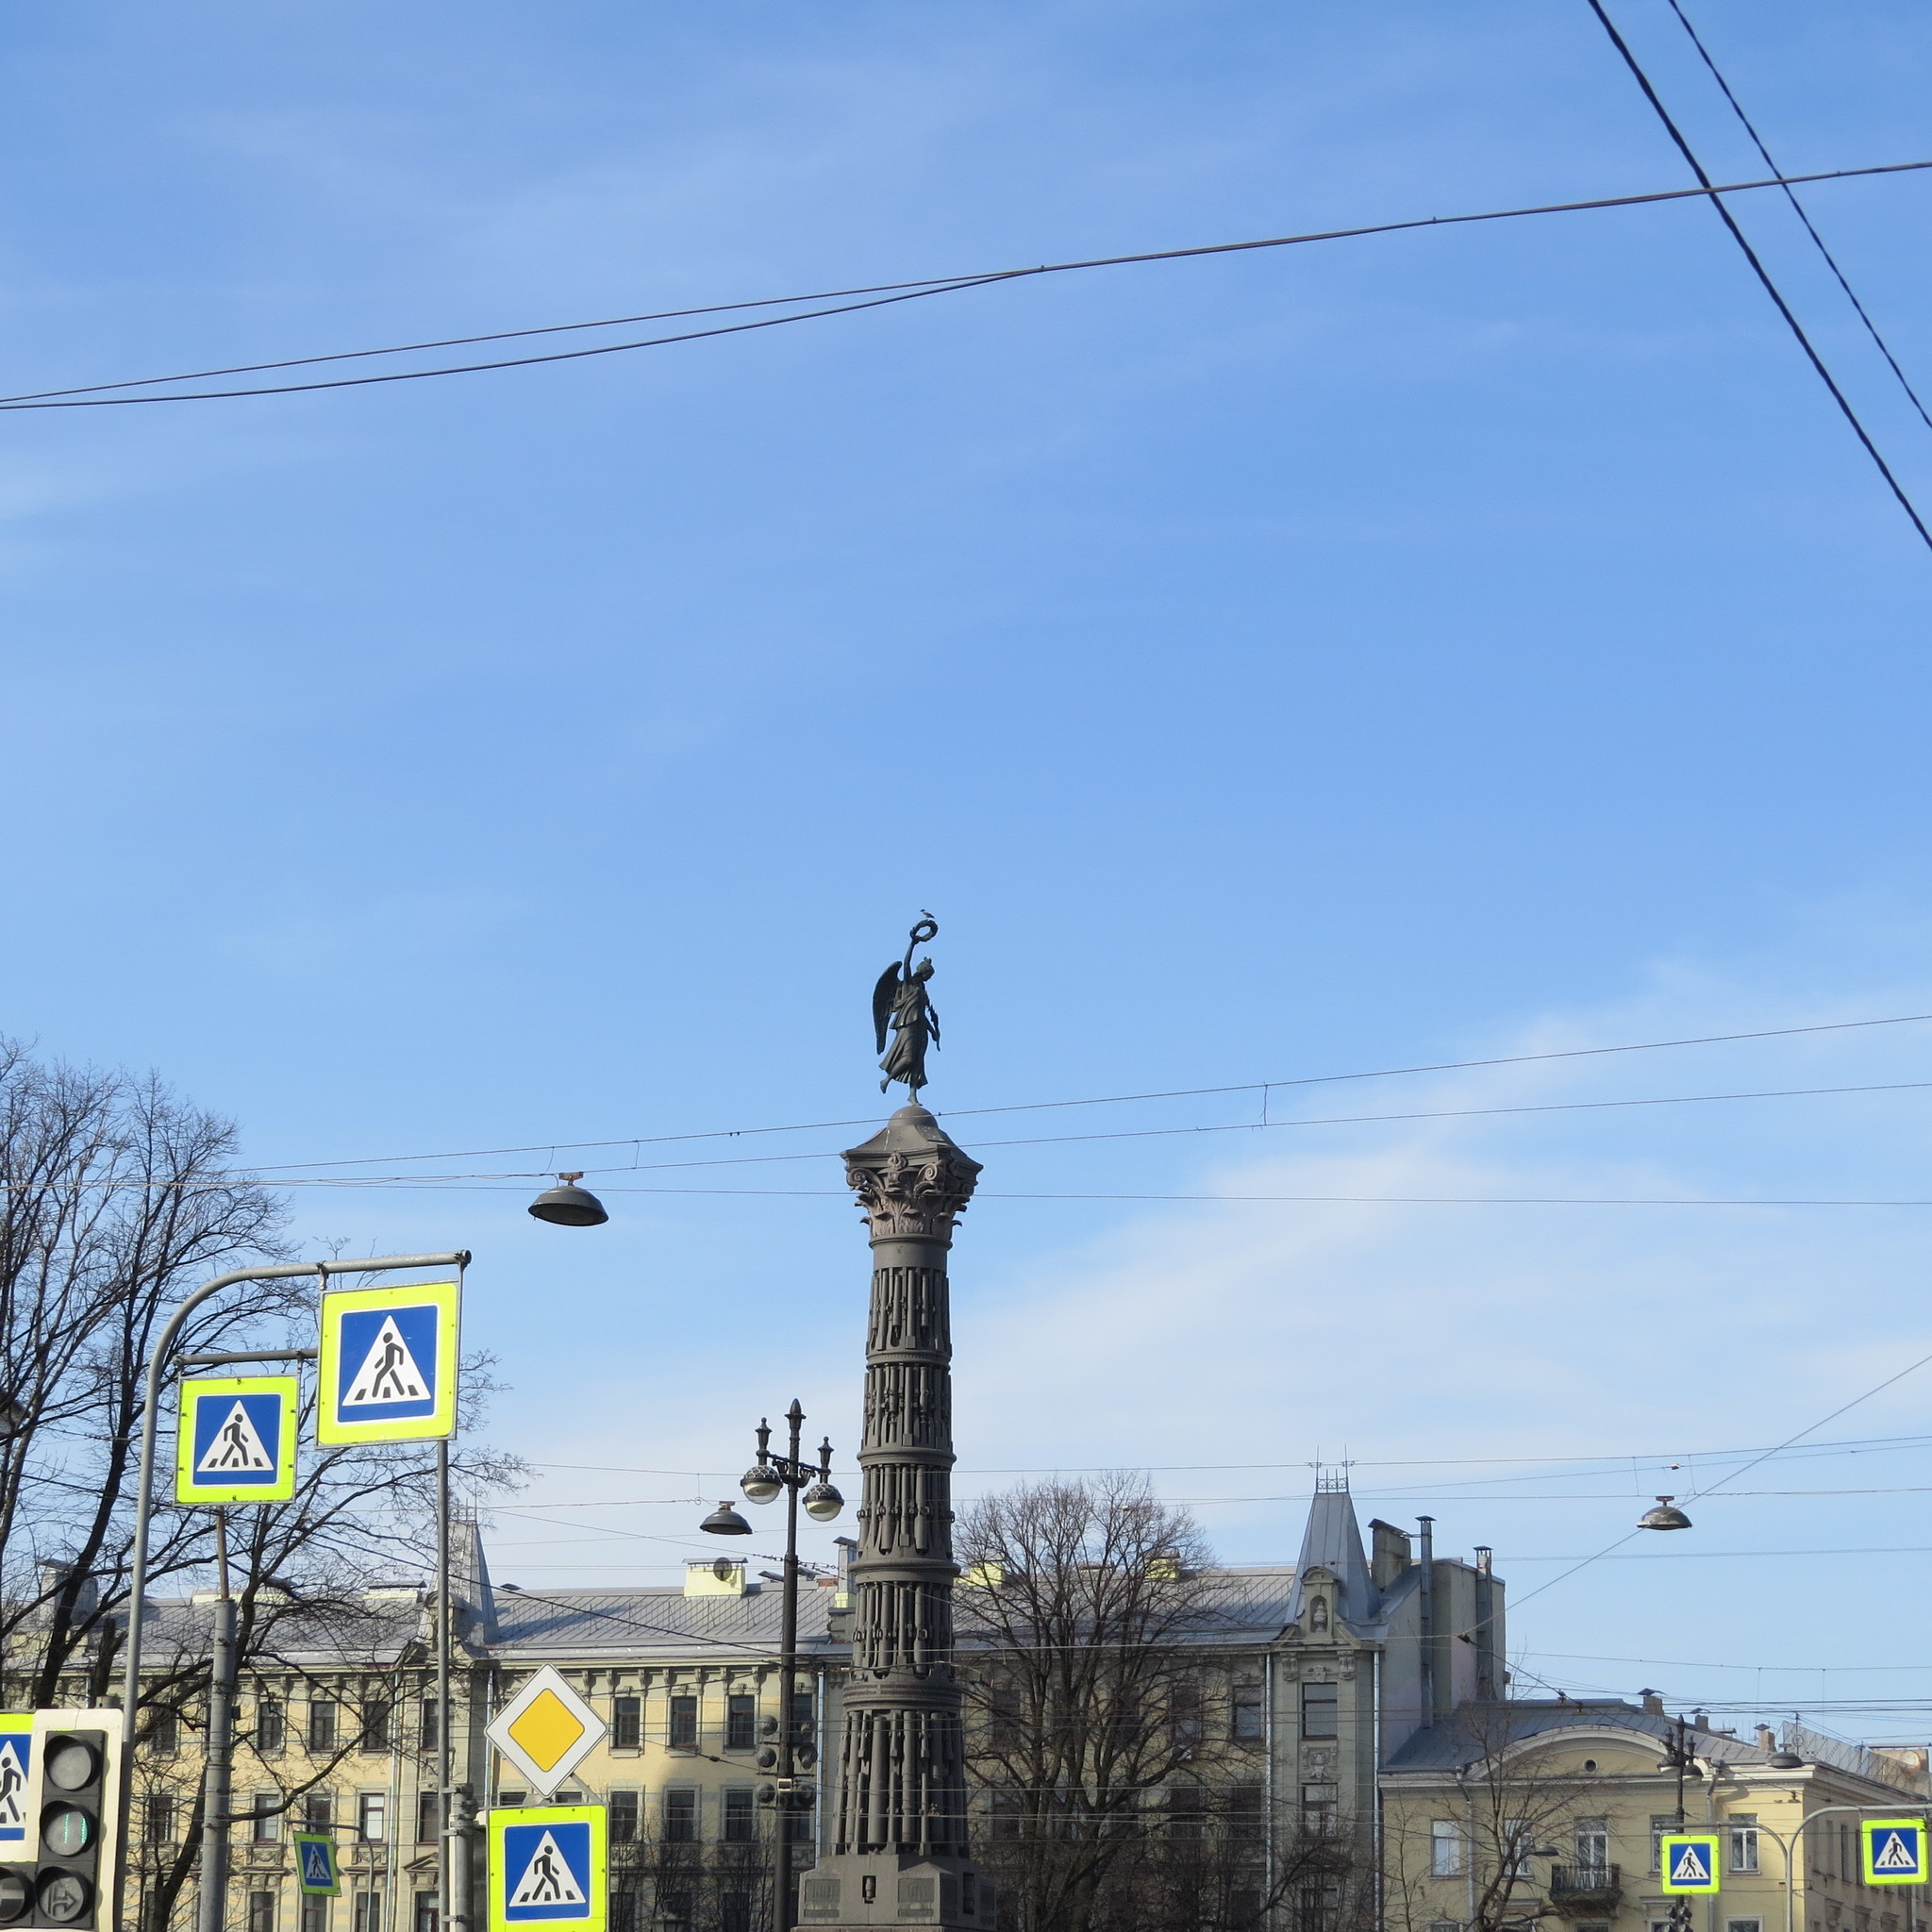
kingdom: Animalia
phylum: Chordata
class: Aves
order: Passeriformes
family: Corvidae
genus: Corvus
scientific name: Corvus cornix
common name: Hooded crow
